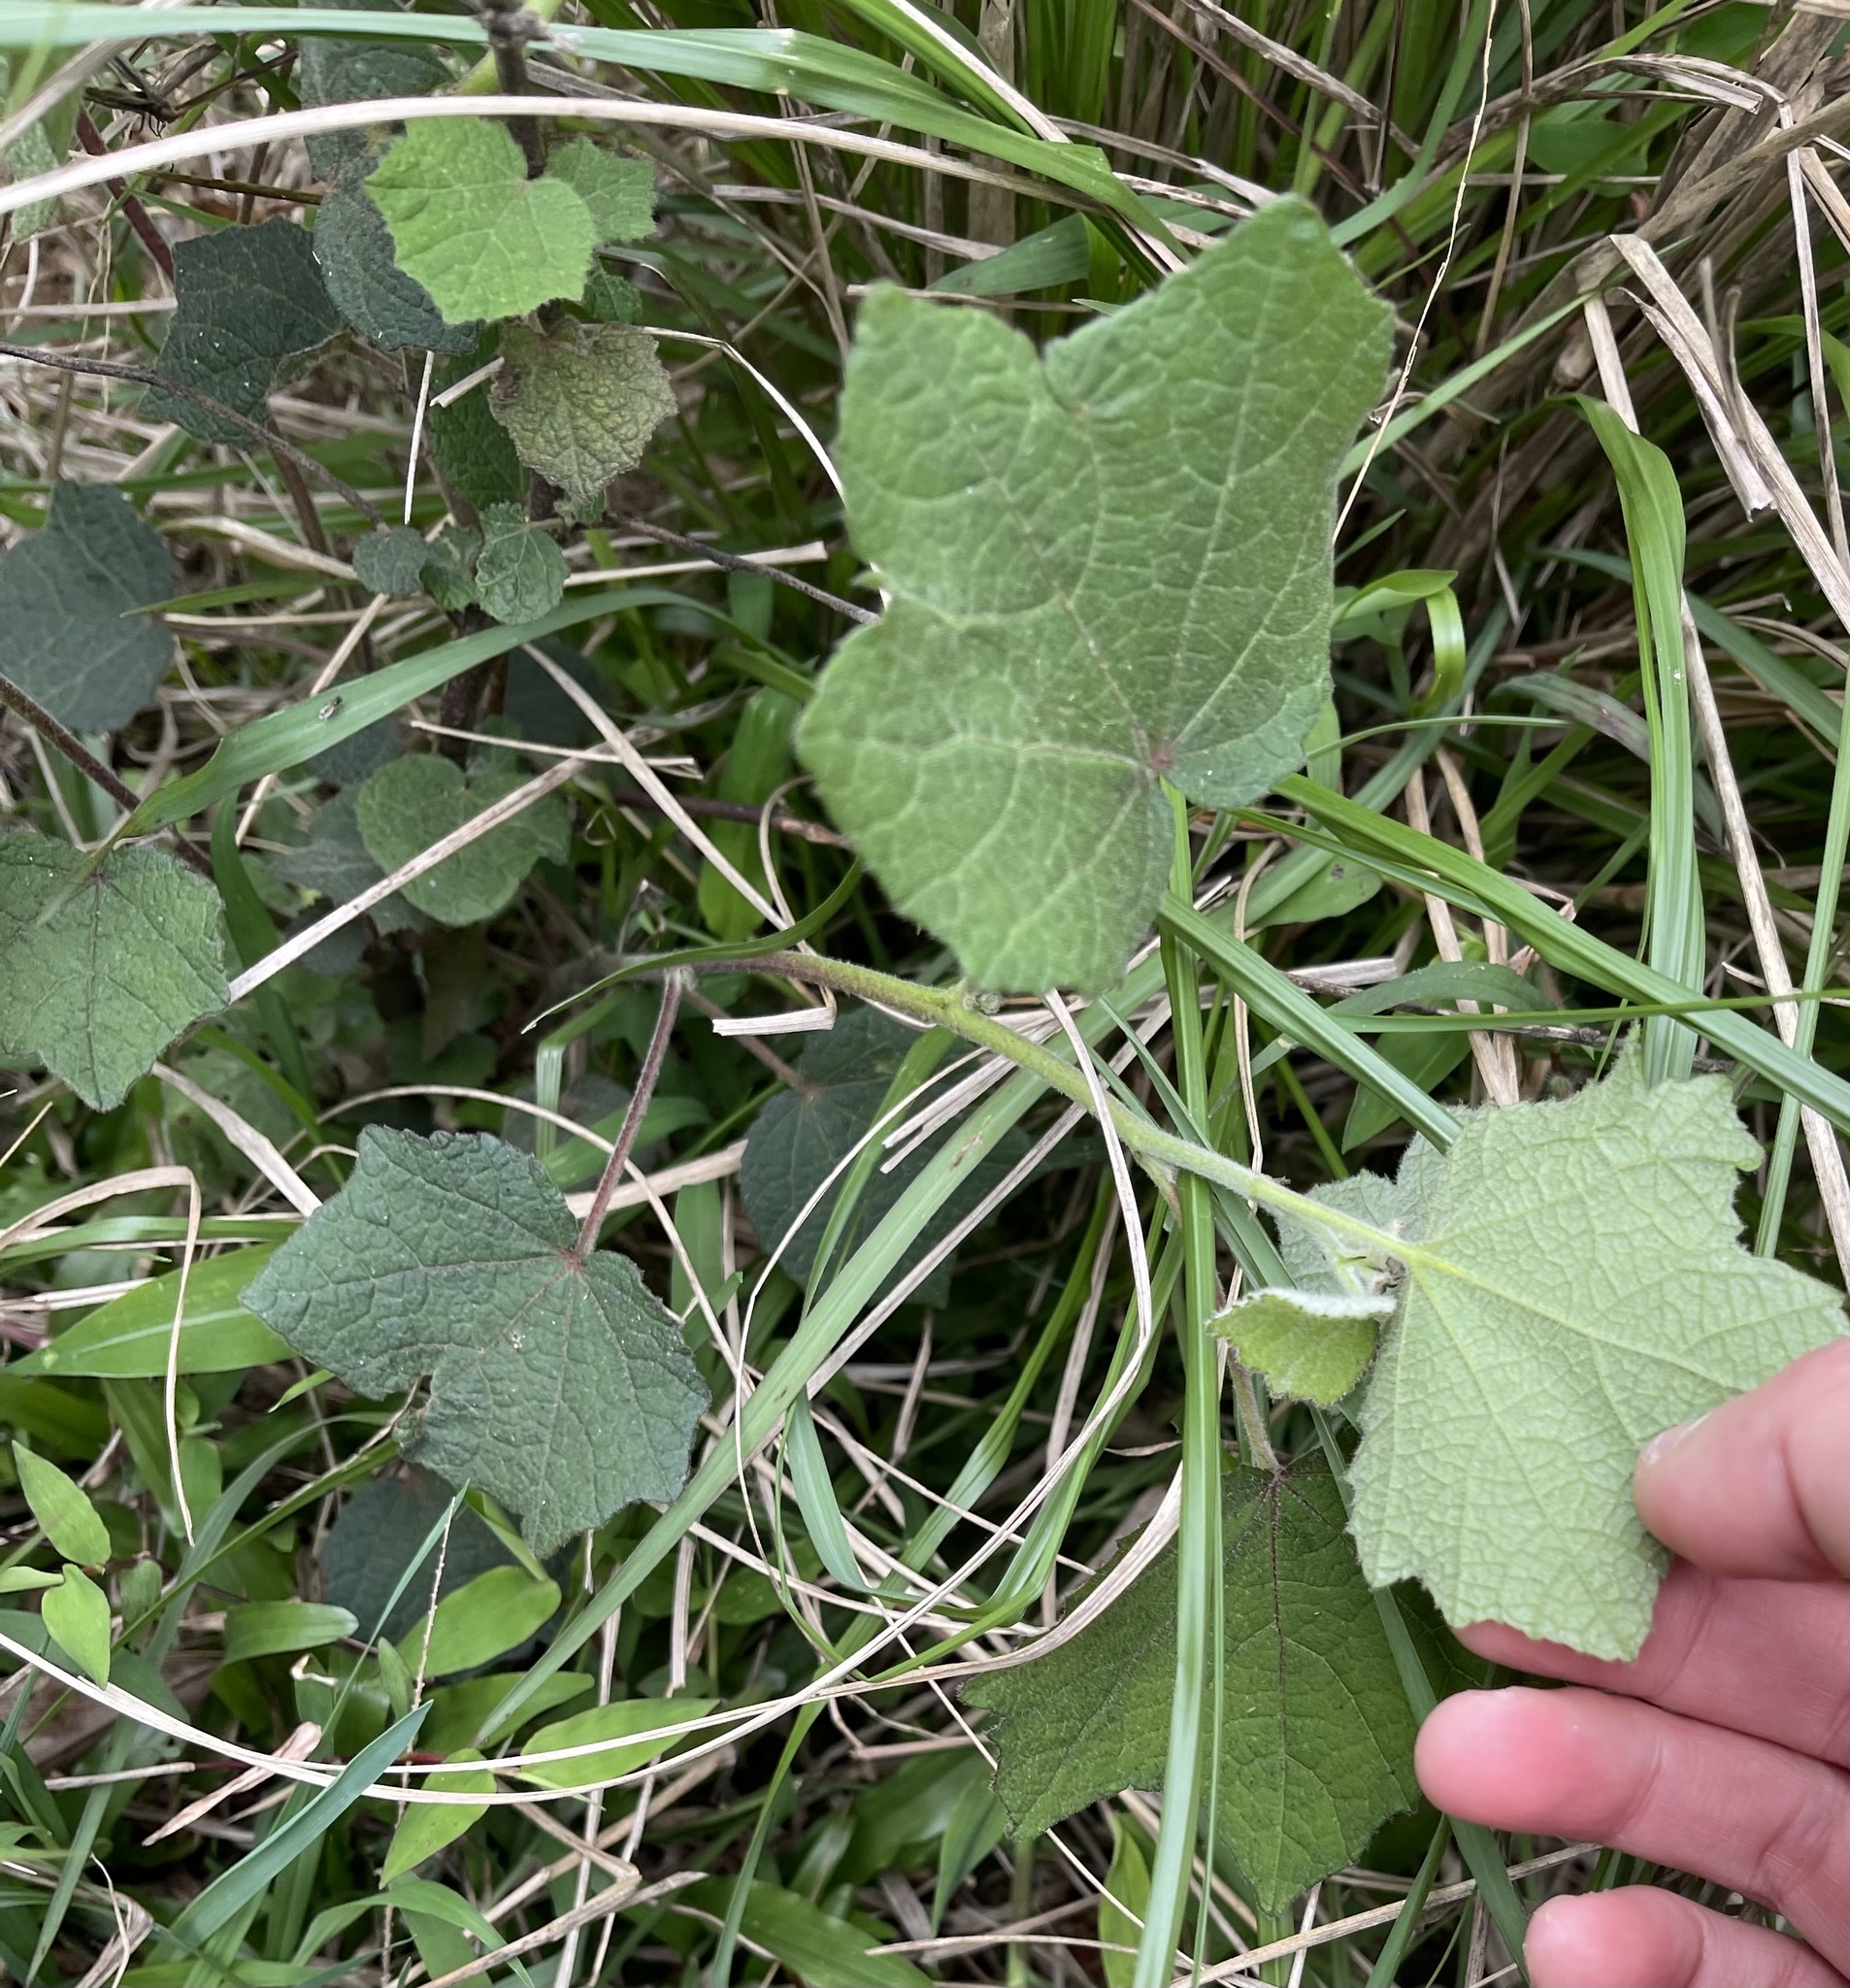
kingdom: Plantae
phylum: Tracheophyta
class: Magnoliopsida
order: Malvales
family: Malvaceae
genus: Urena
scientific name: Urena lobata
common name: Caesarweed
